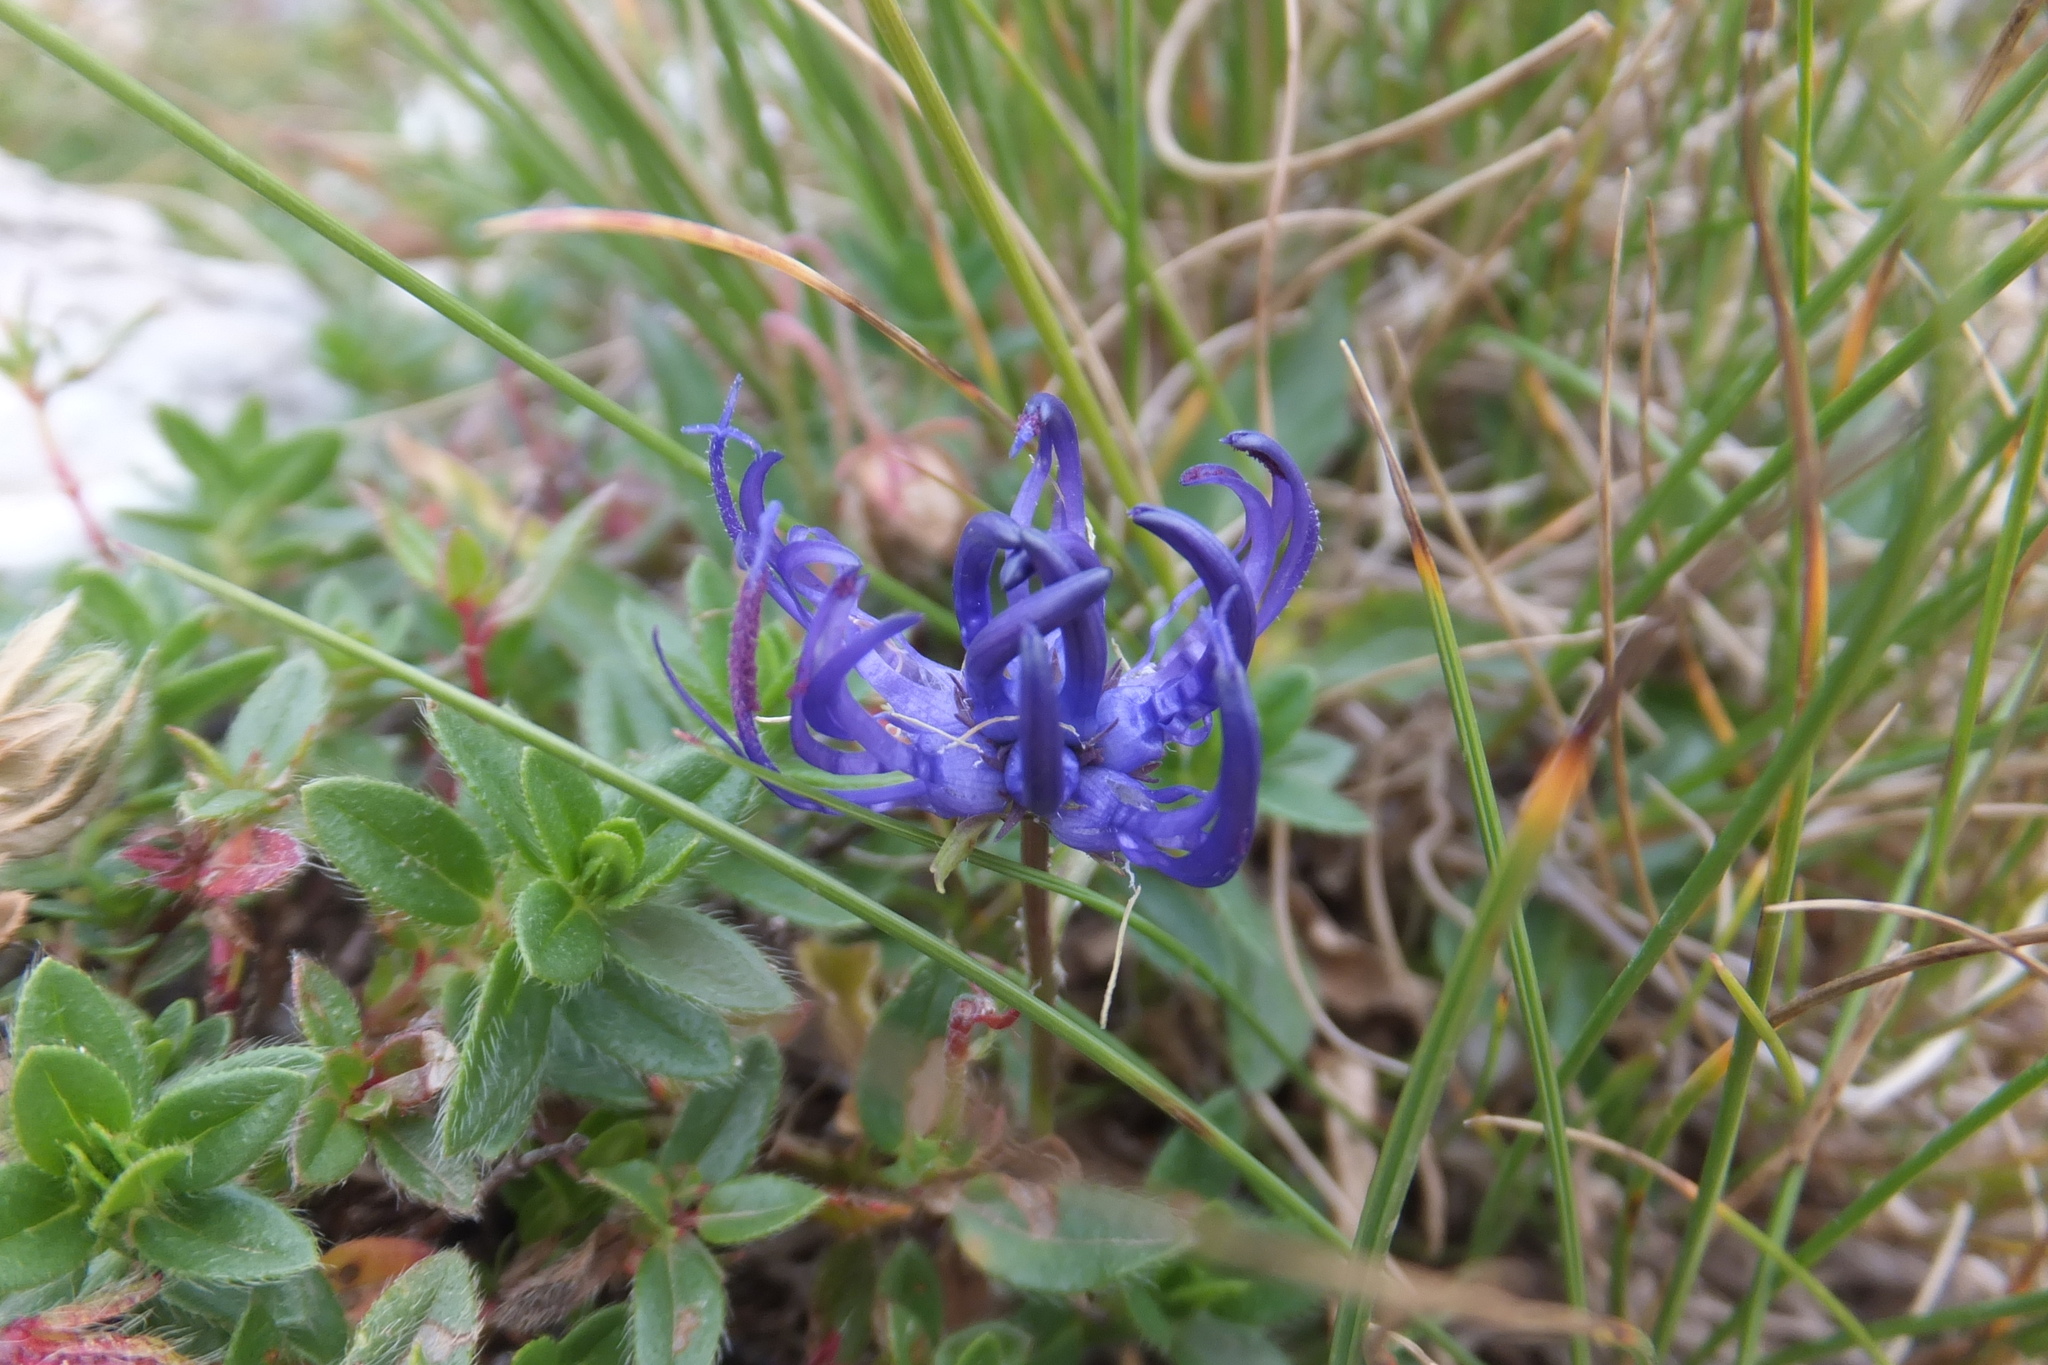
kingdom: Plantae
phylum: Tracheophyta
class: Magnoliopsida
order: Asterales
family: Campanulaceae
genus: Phyteuma
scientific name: Phyteuma orbiculare
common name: Round-headed rampion
